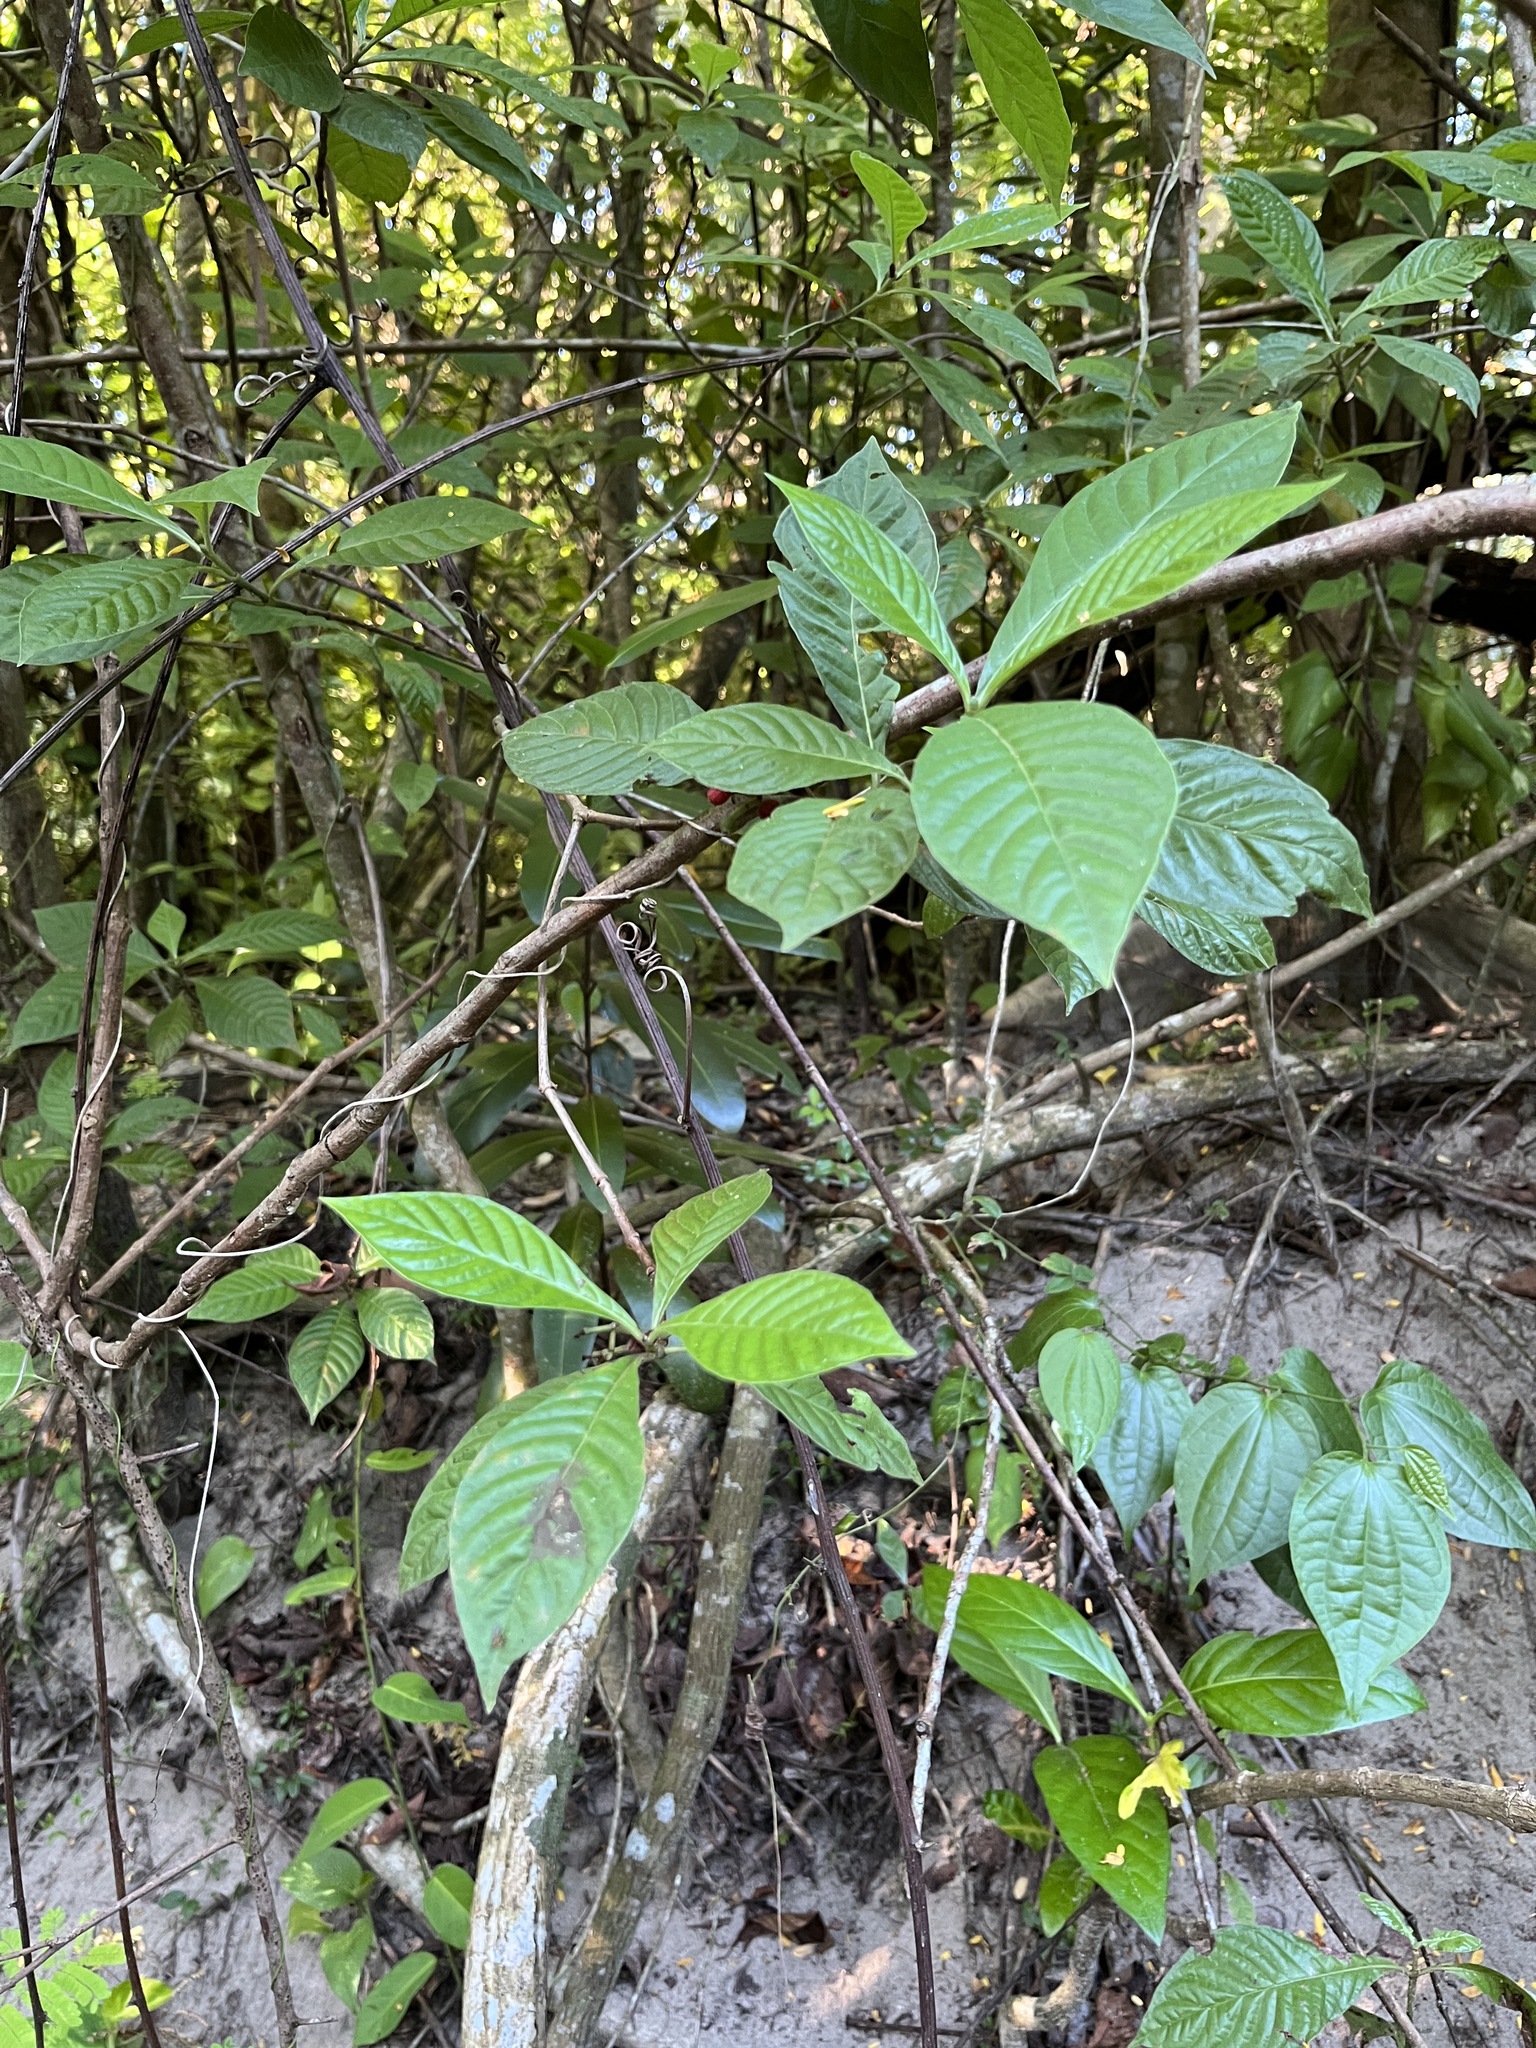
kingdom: Plantae
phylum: Tracheophyta
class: Magnoliopsida
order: Gentianales
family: Rubiaceae
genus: Psychotria
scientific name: Psychotria nervosa
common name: Bastard cankerberry
